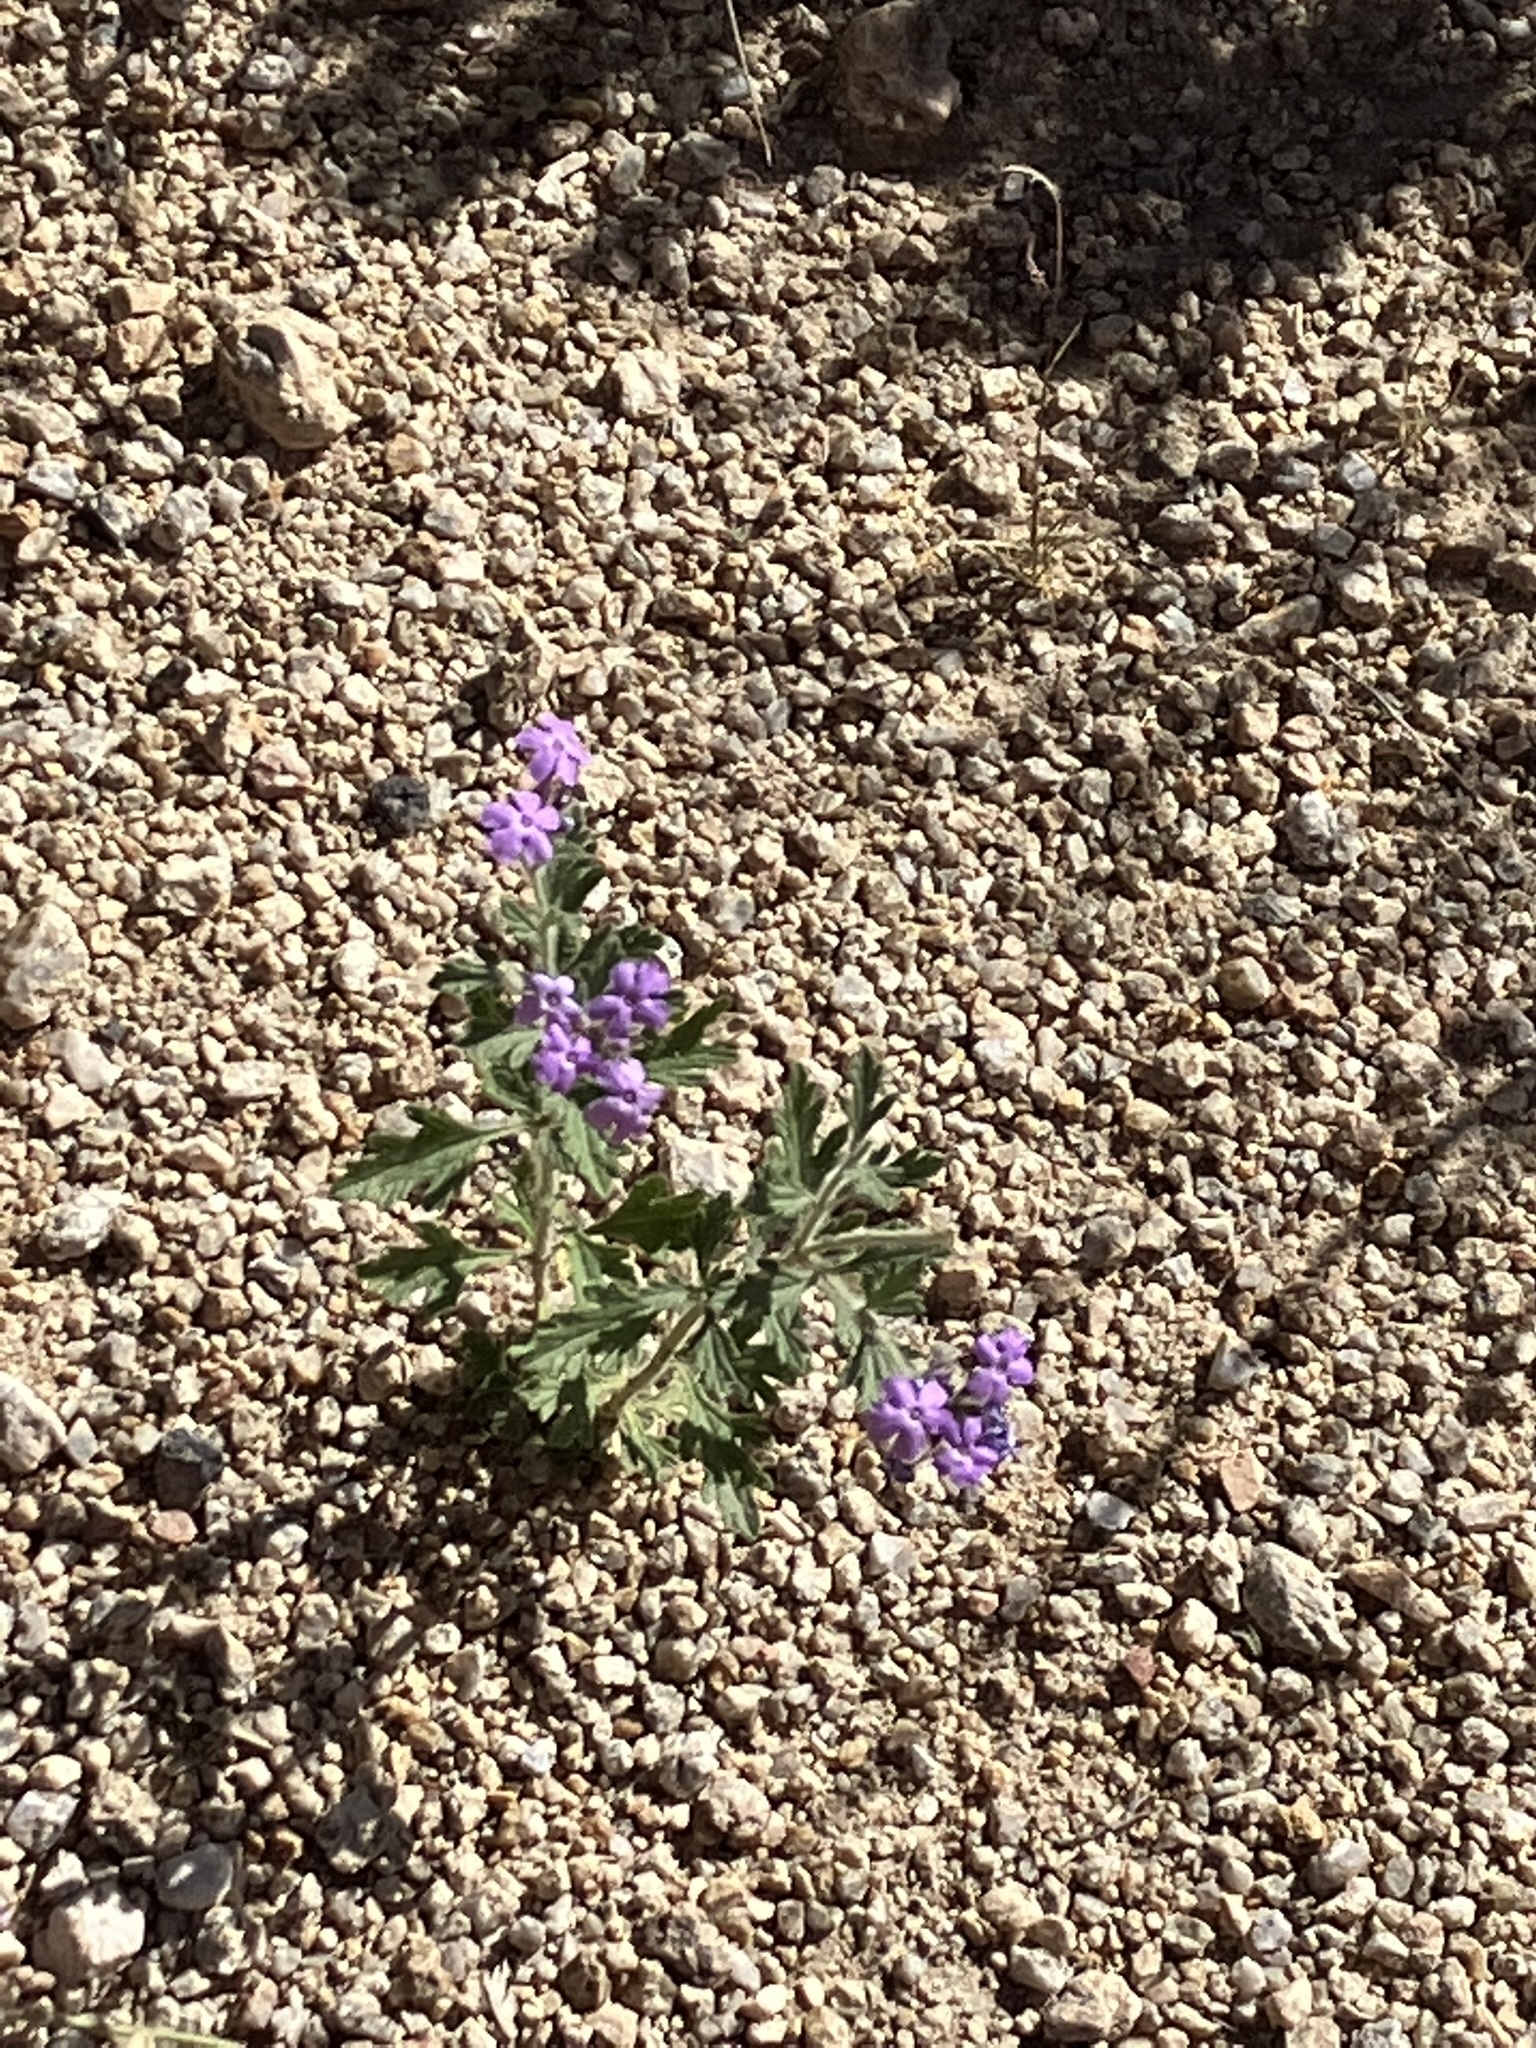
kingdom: Plantae
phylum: Tracheophyta
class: Magnoliopsida
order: Lamiales
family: Verbenaceae
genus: Verbena
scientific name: Verbena gooddingii
